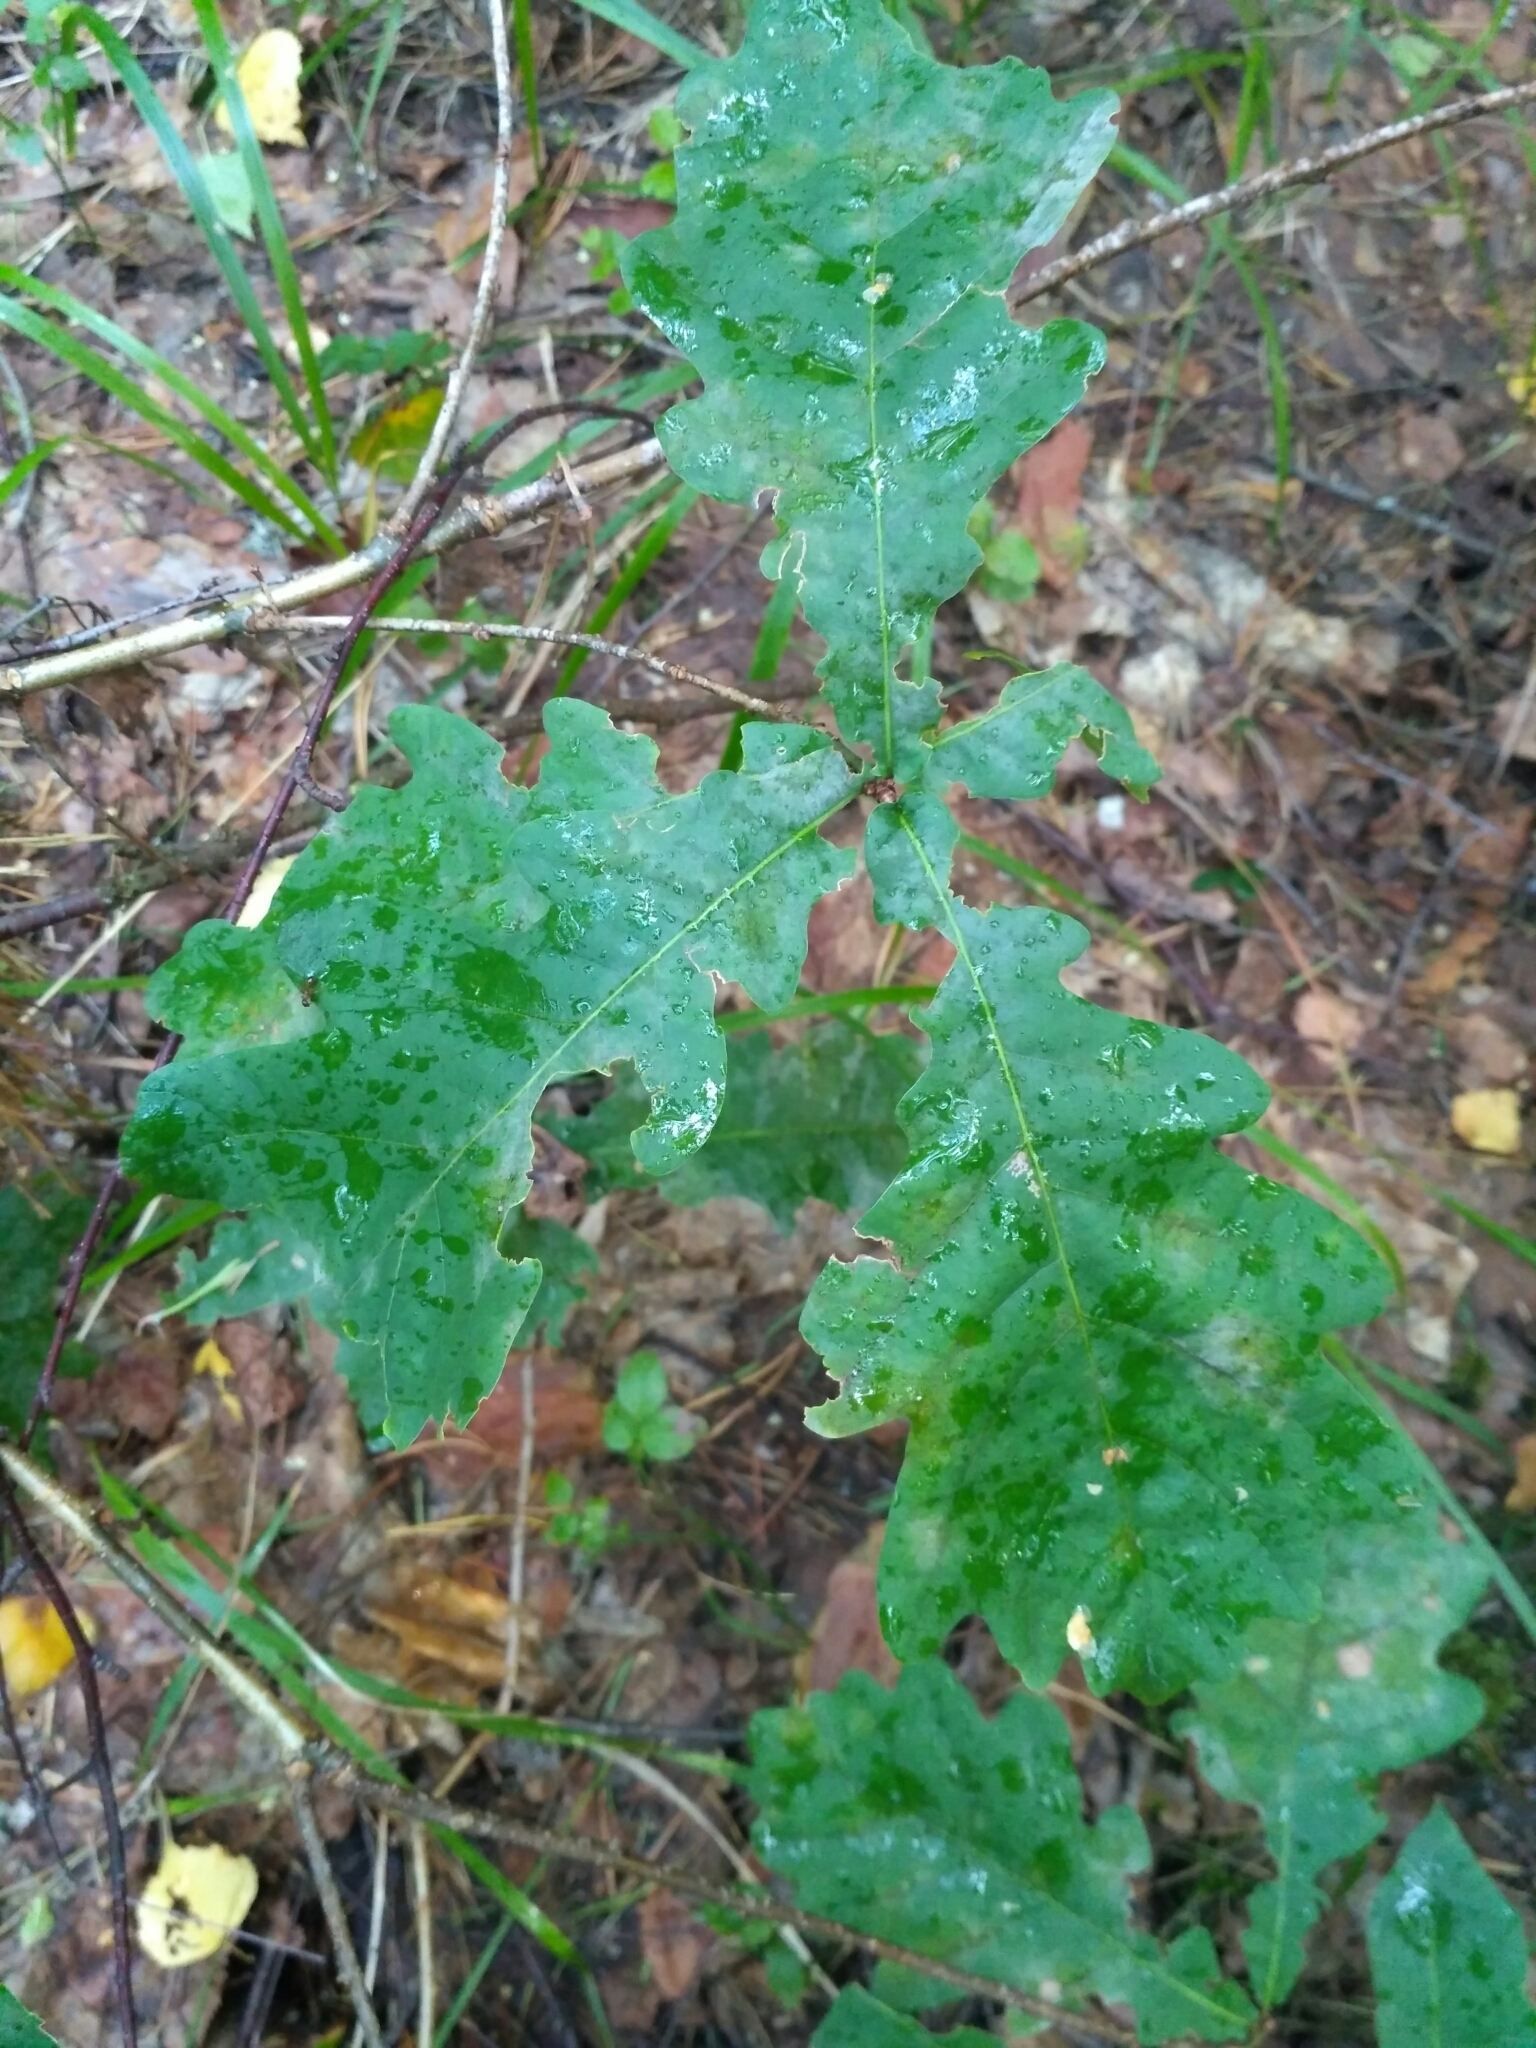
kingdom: Plantae
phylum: Tracheophyta
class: Magnoliopsida
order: Fagales
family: Fagaceae
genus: Quercus
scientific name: Quercus robur
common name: Pedunculate oak
